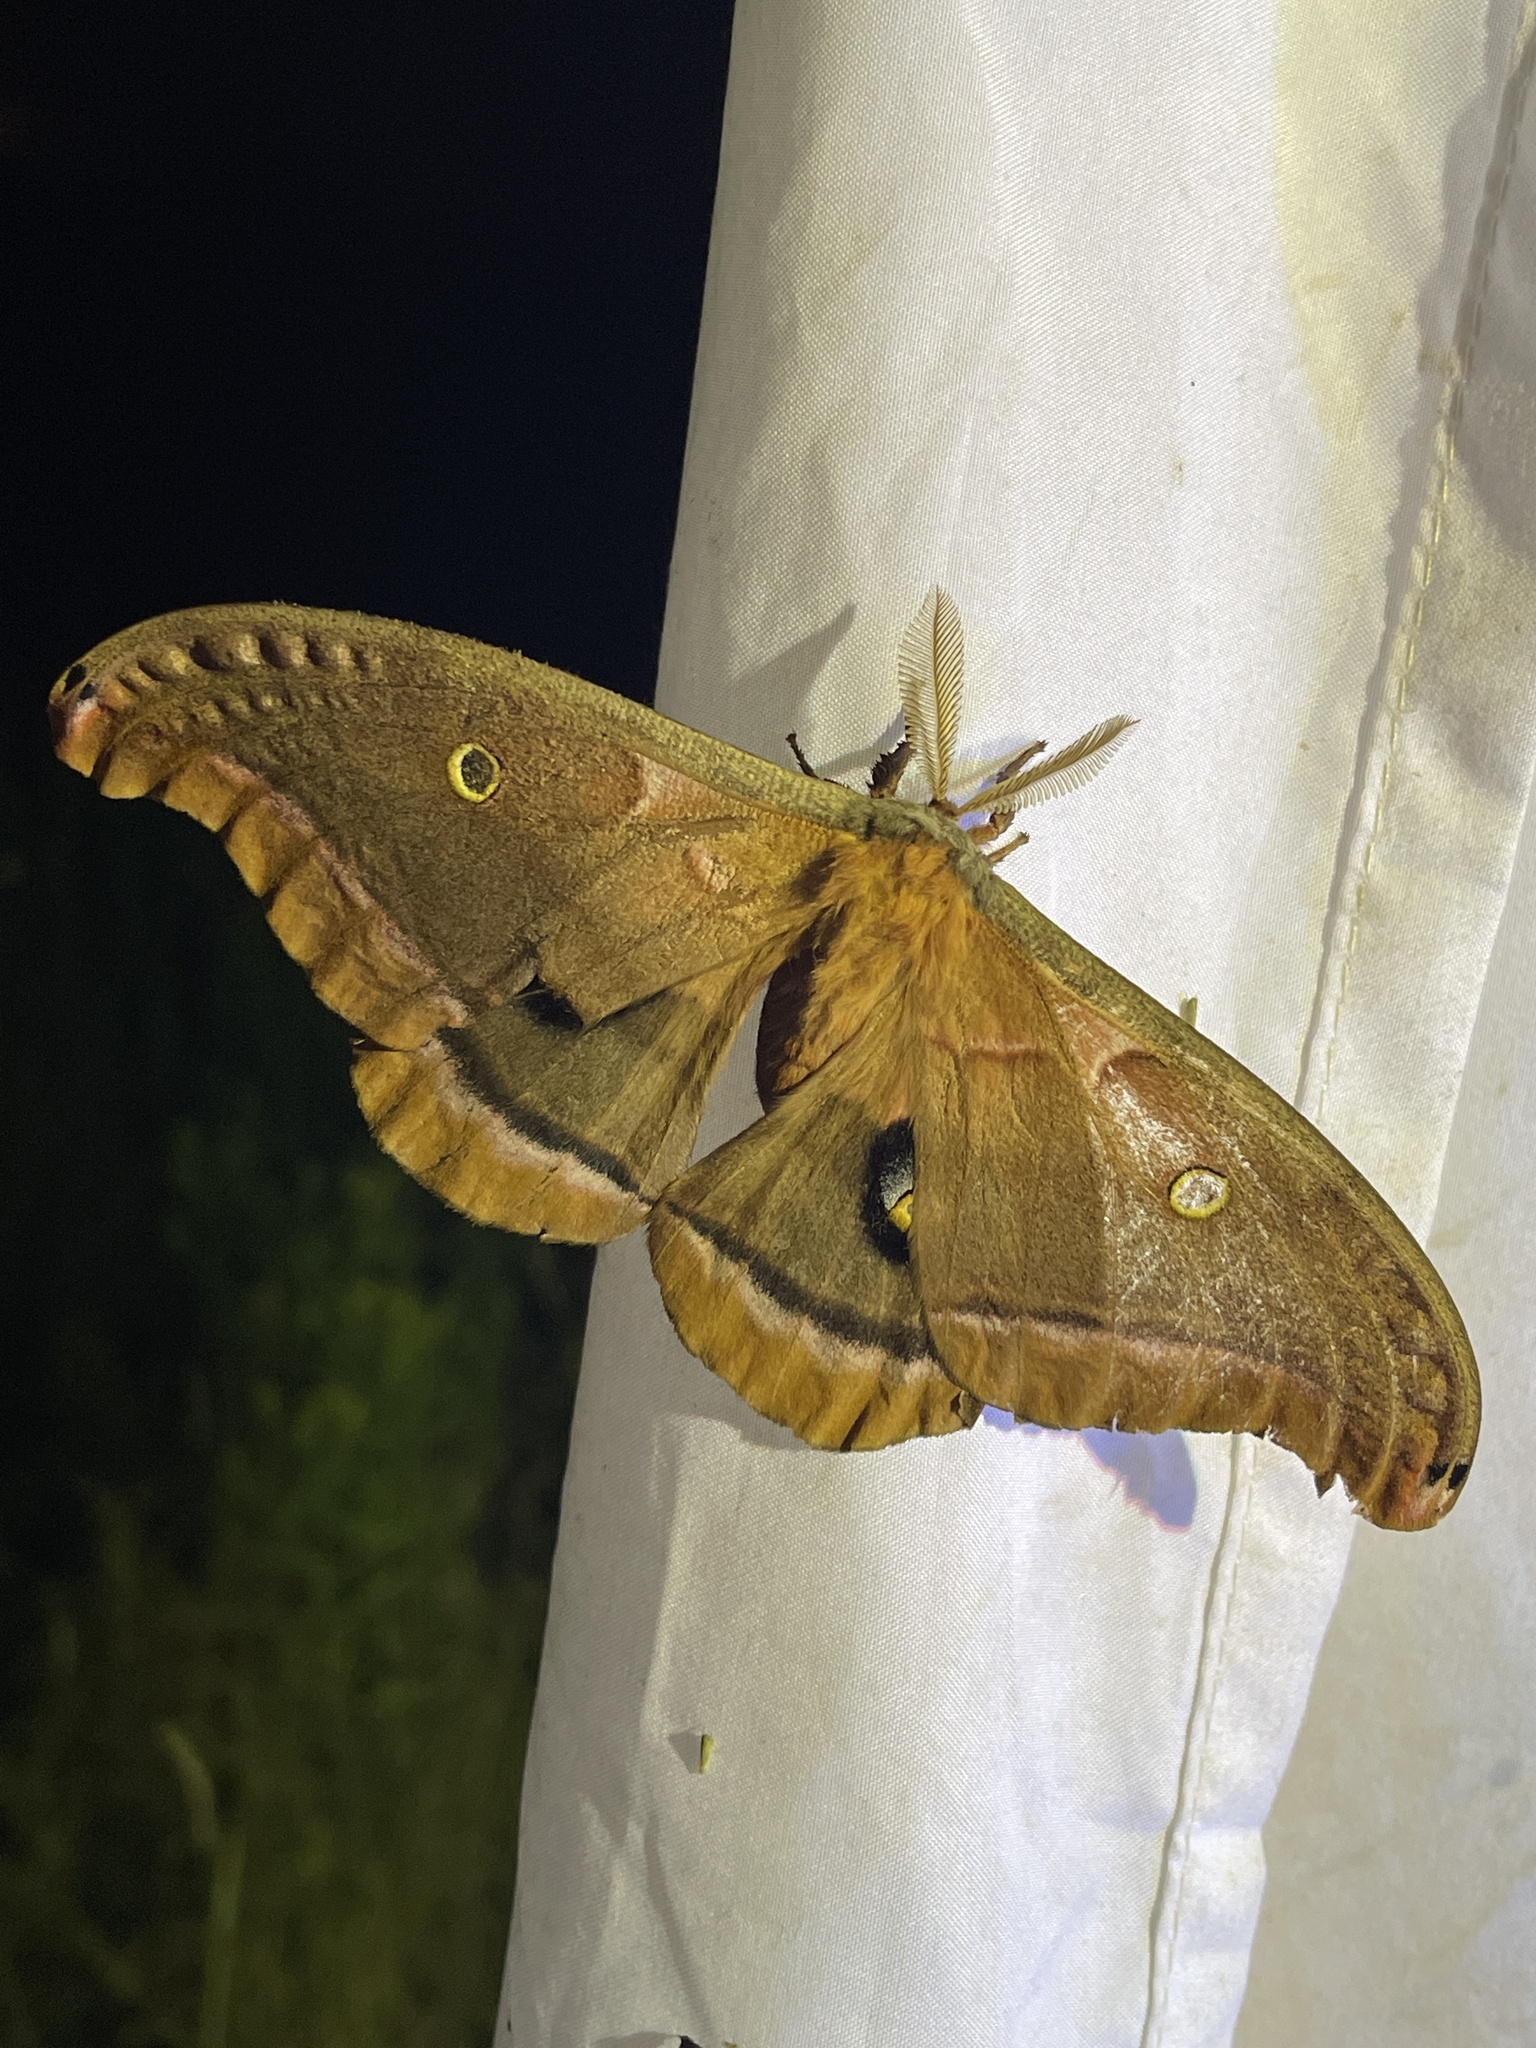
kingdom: Animalia
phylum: Arthropoda
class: Insecta
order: Lepidoptera
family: Saturniidae
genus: Antheraea
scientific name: Antheraea polyphemus
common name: Polyphemus moth
